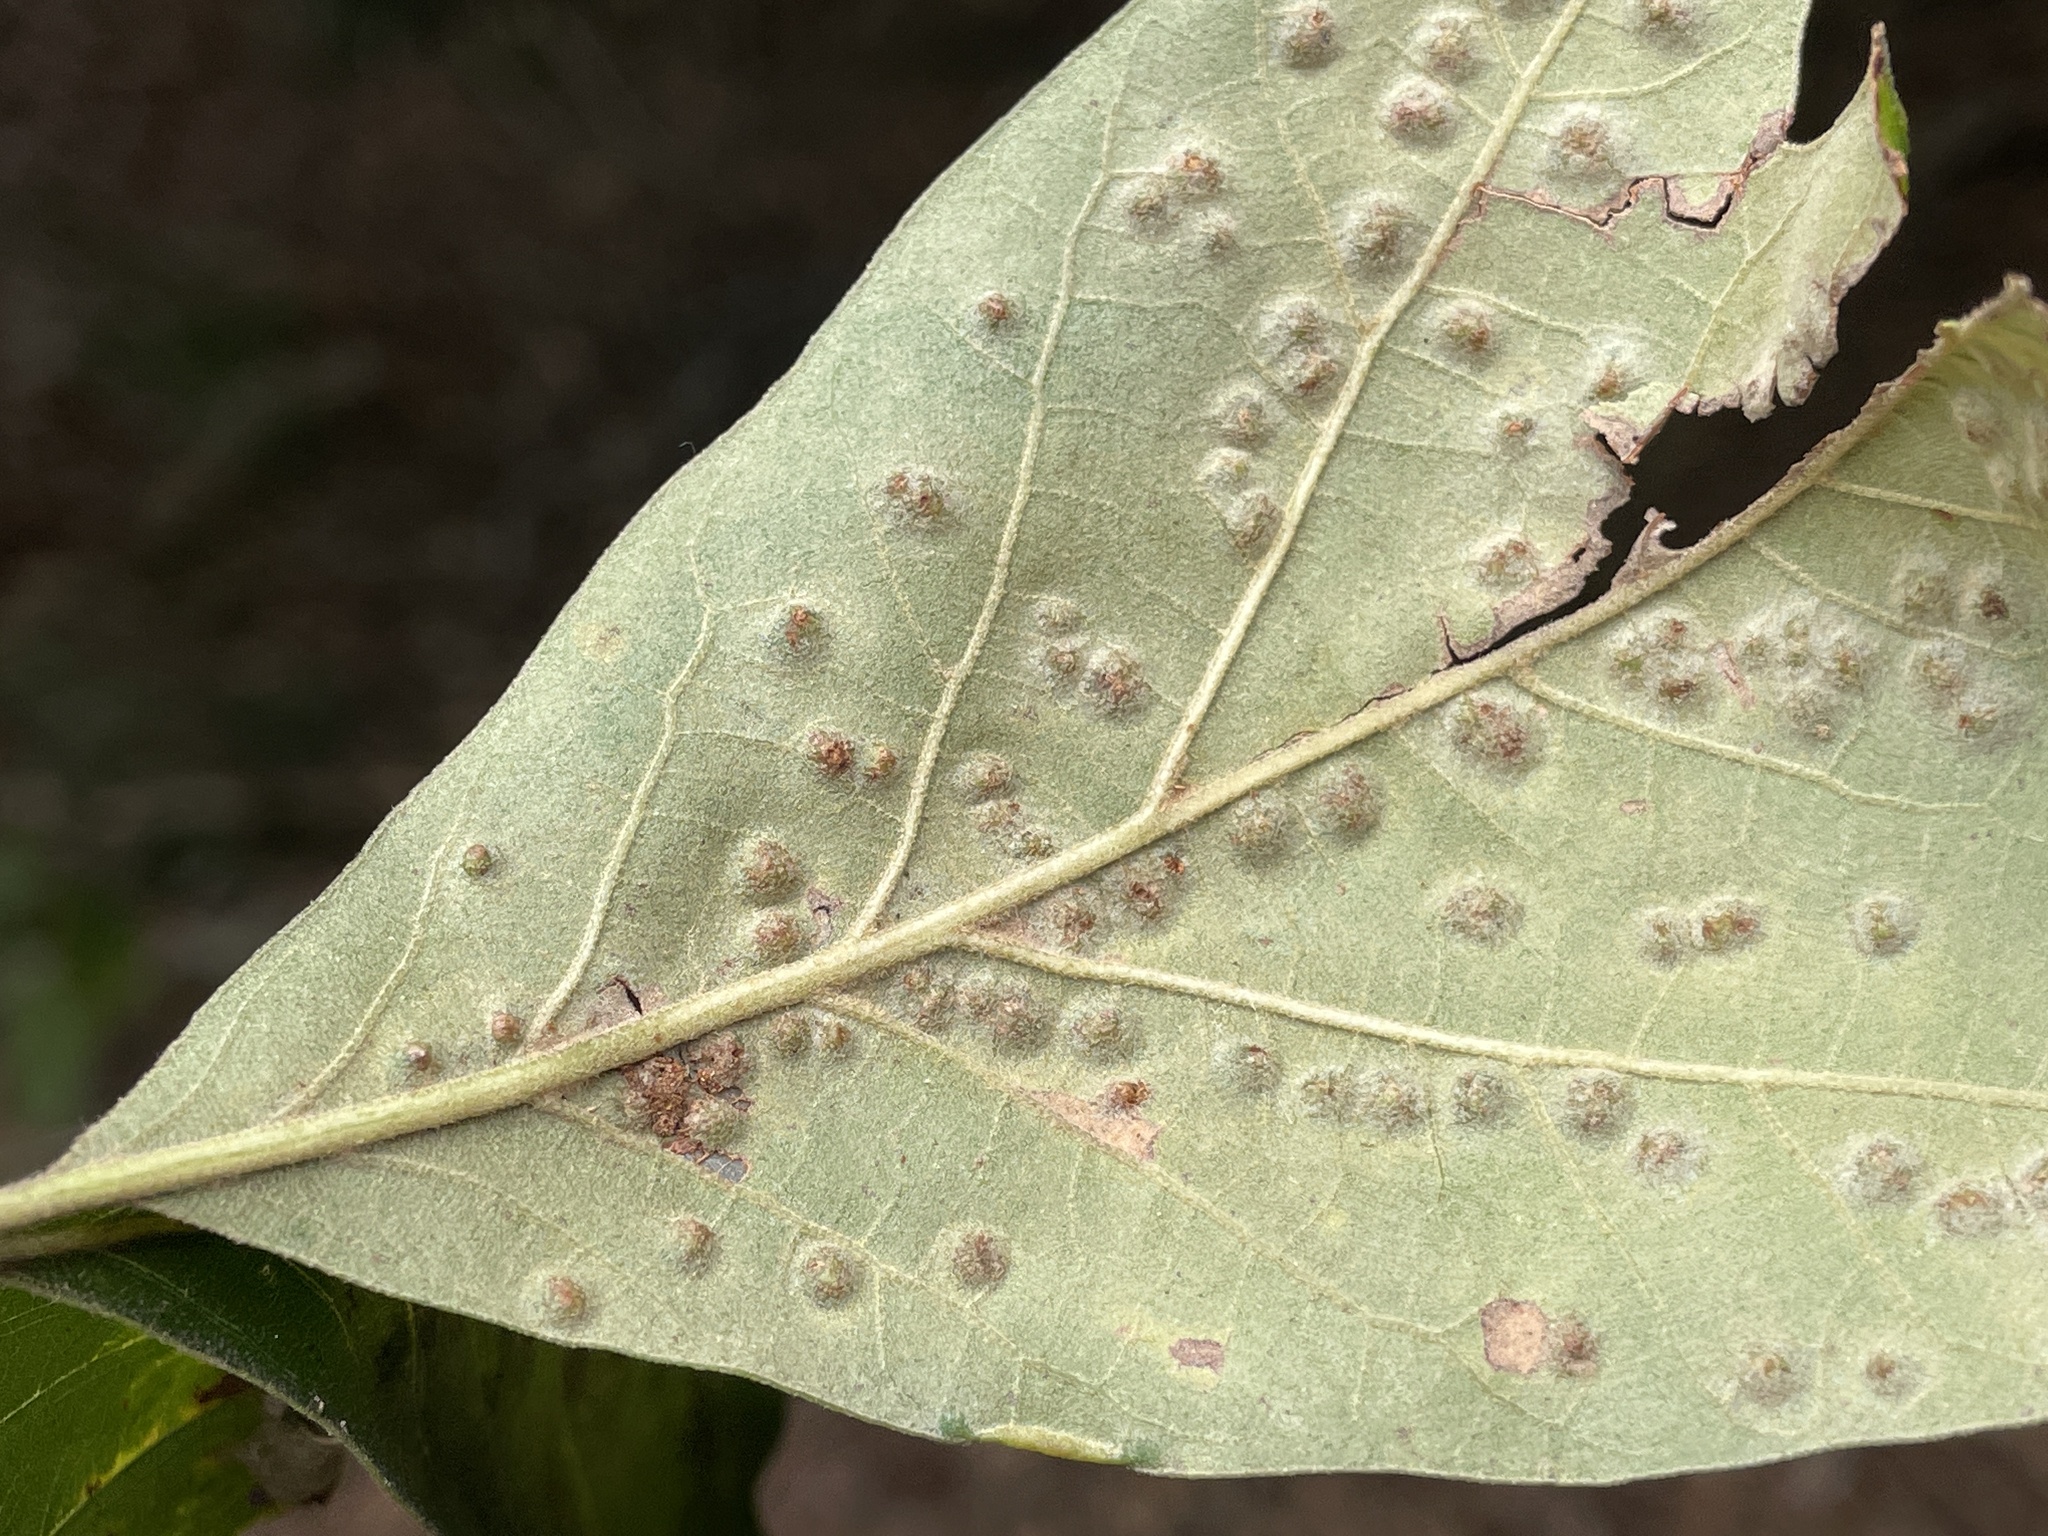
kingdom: Animalia
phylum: Arthropoda
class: Insecta
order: Hymenoptera
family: Cynipidae
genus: Callirhytis
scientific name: Callirhytis
